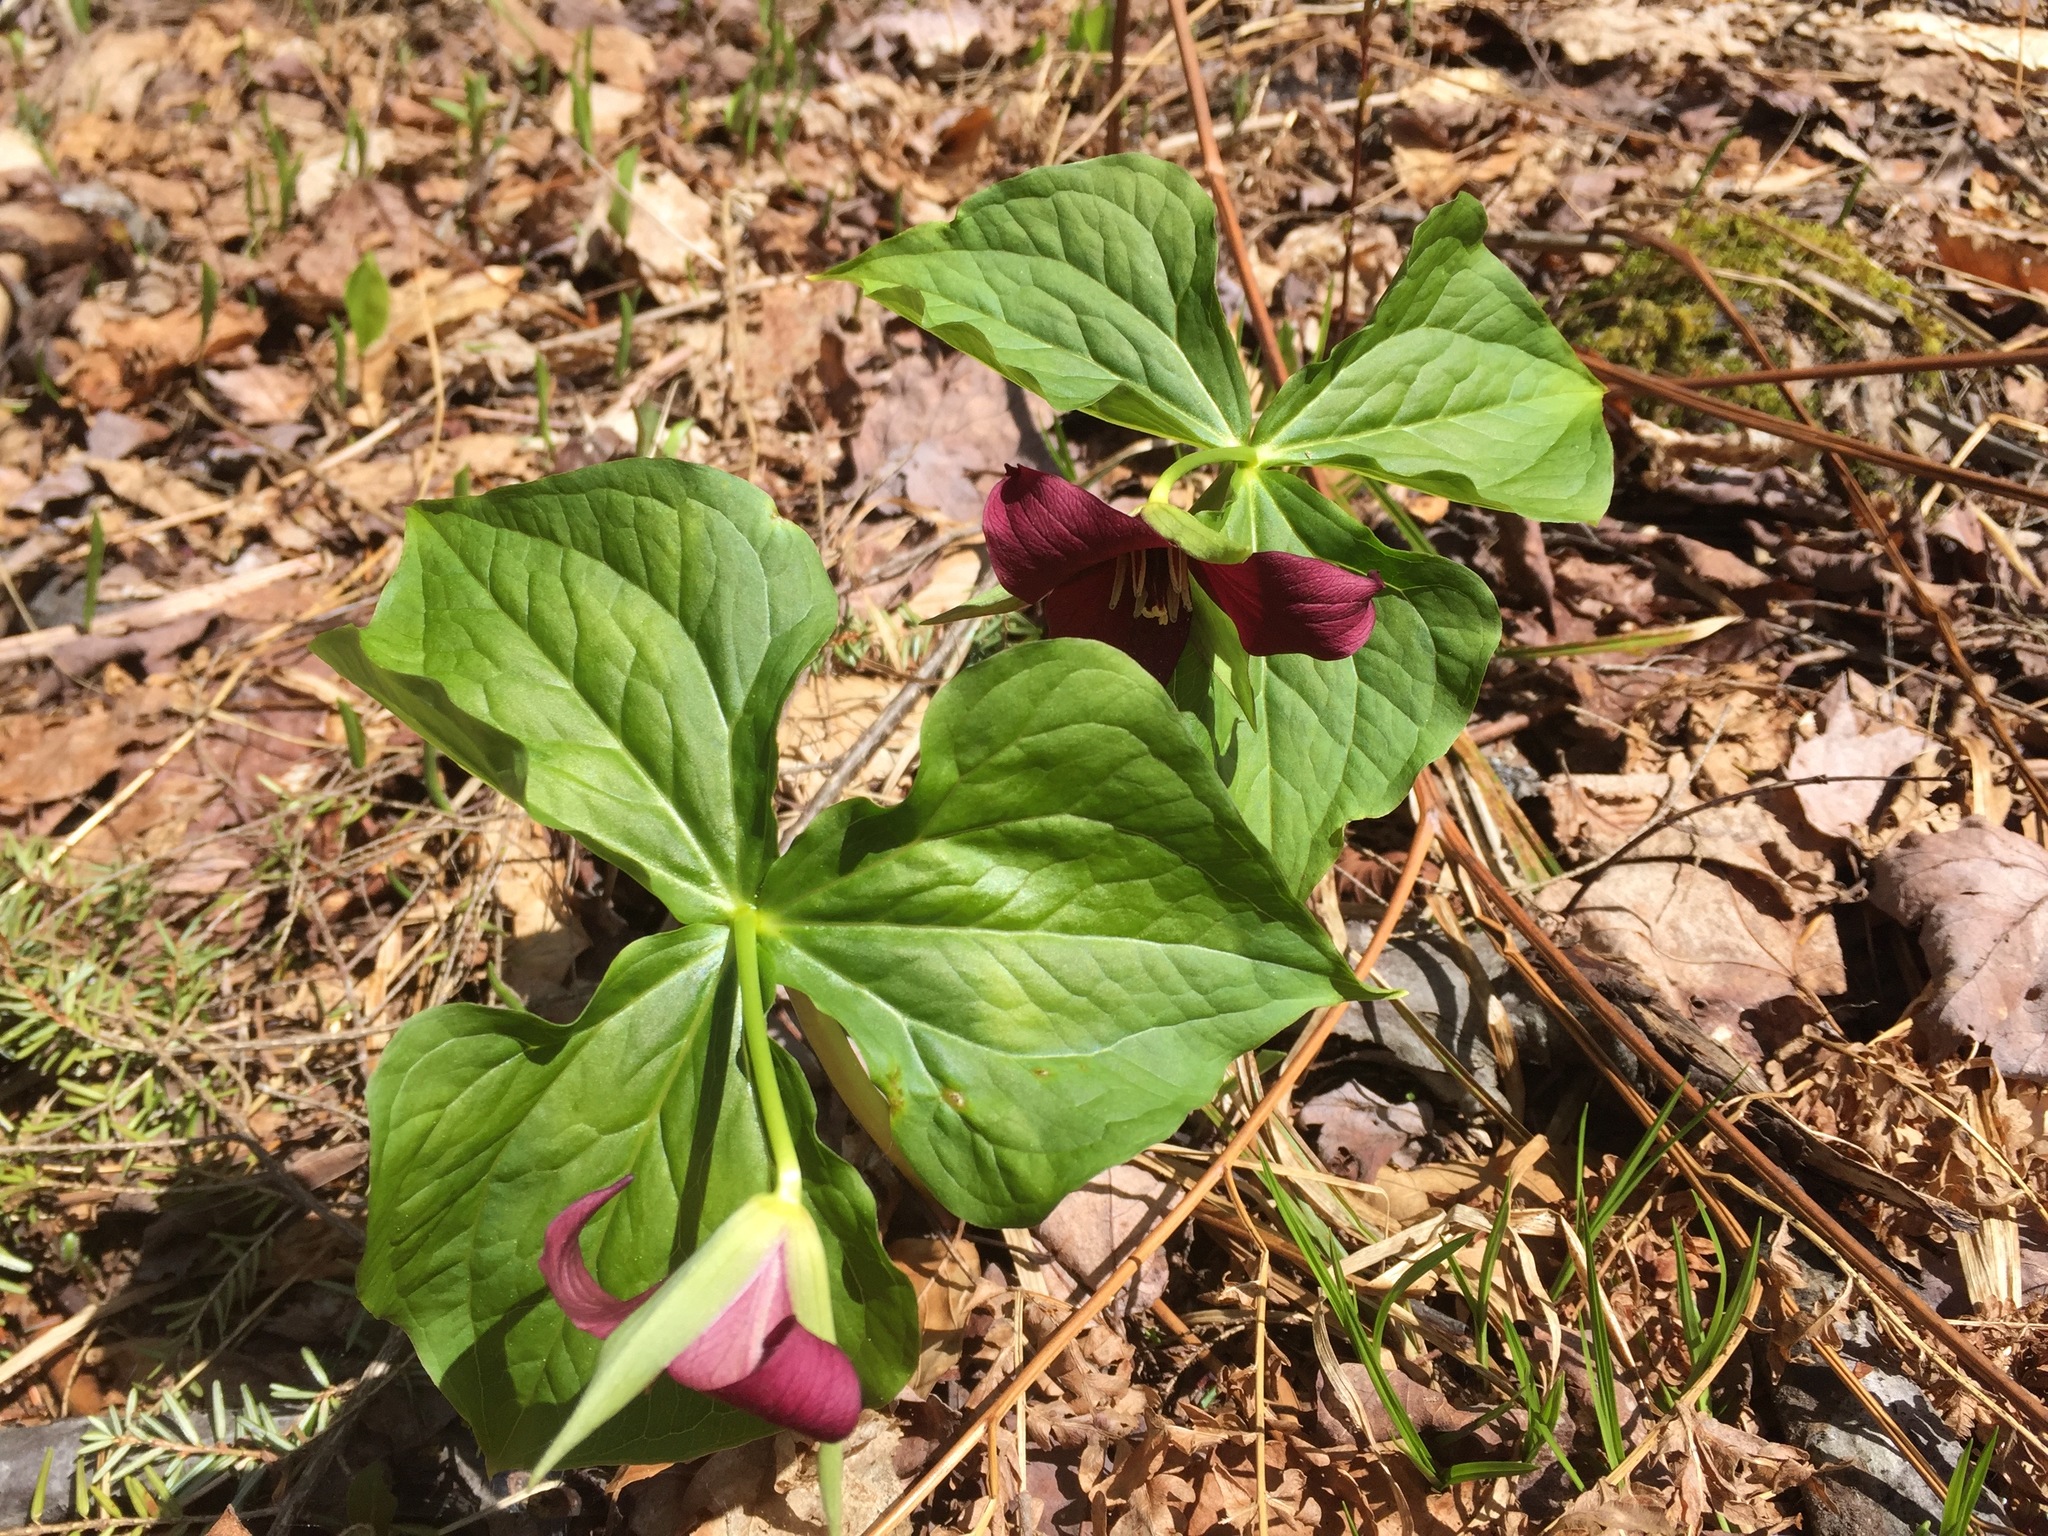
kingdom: Plantae
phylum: Tracheophyta
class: Liliopsida
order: Liliales
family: Melanthiaceae
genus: Trillium
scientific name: Trillium erectum
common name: Purple trillium
